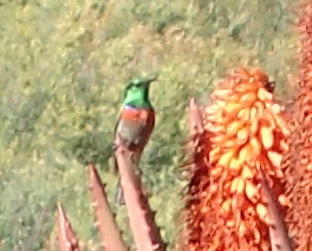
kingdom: Animalia
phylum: Chordata
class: Aves
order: Passeriformes
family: Nectariniidae
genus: Cinnyris
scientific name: Cinnyris chalybeus
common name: Southern double-collared sunbird
